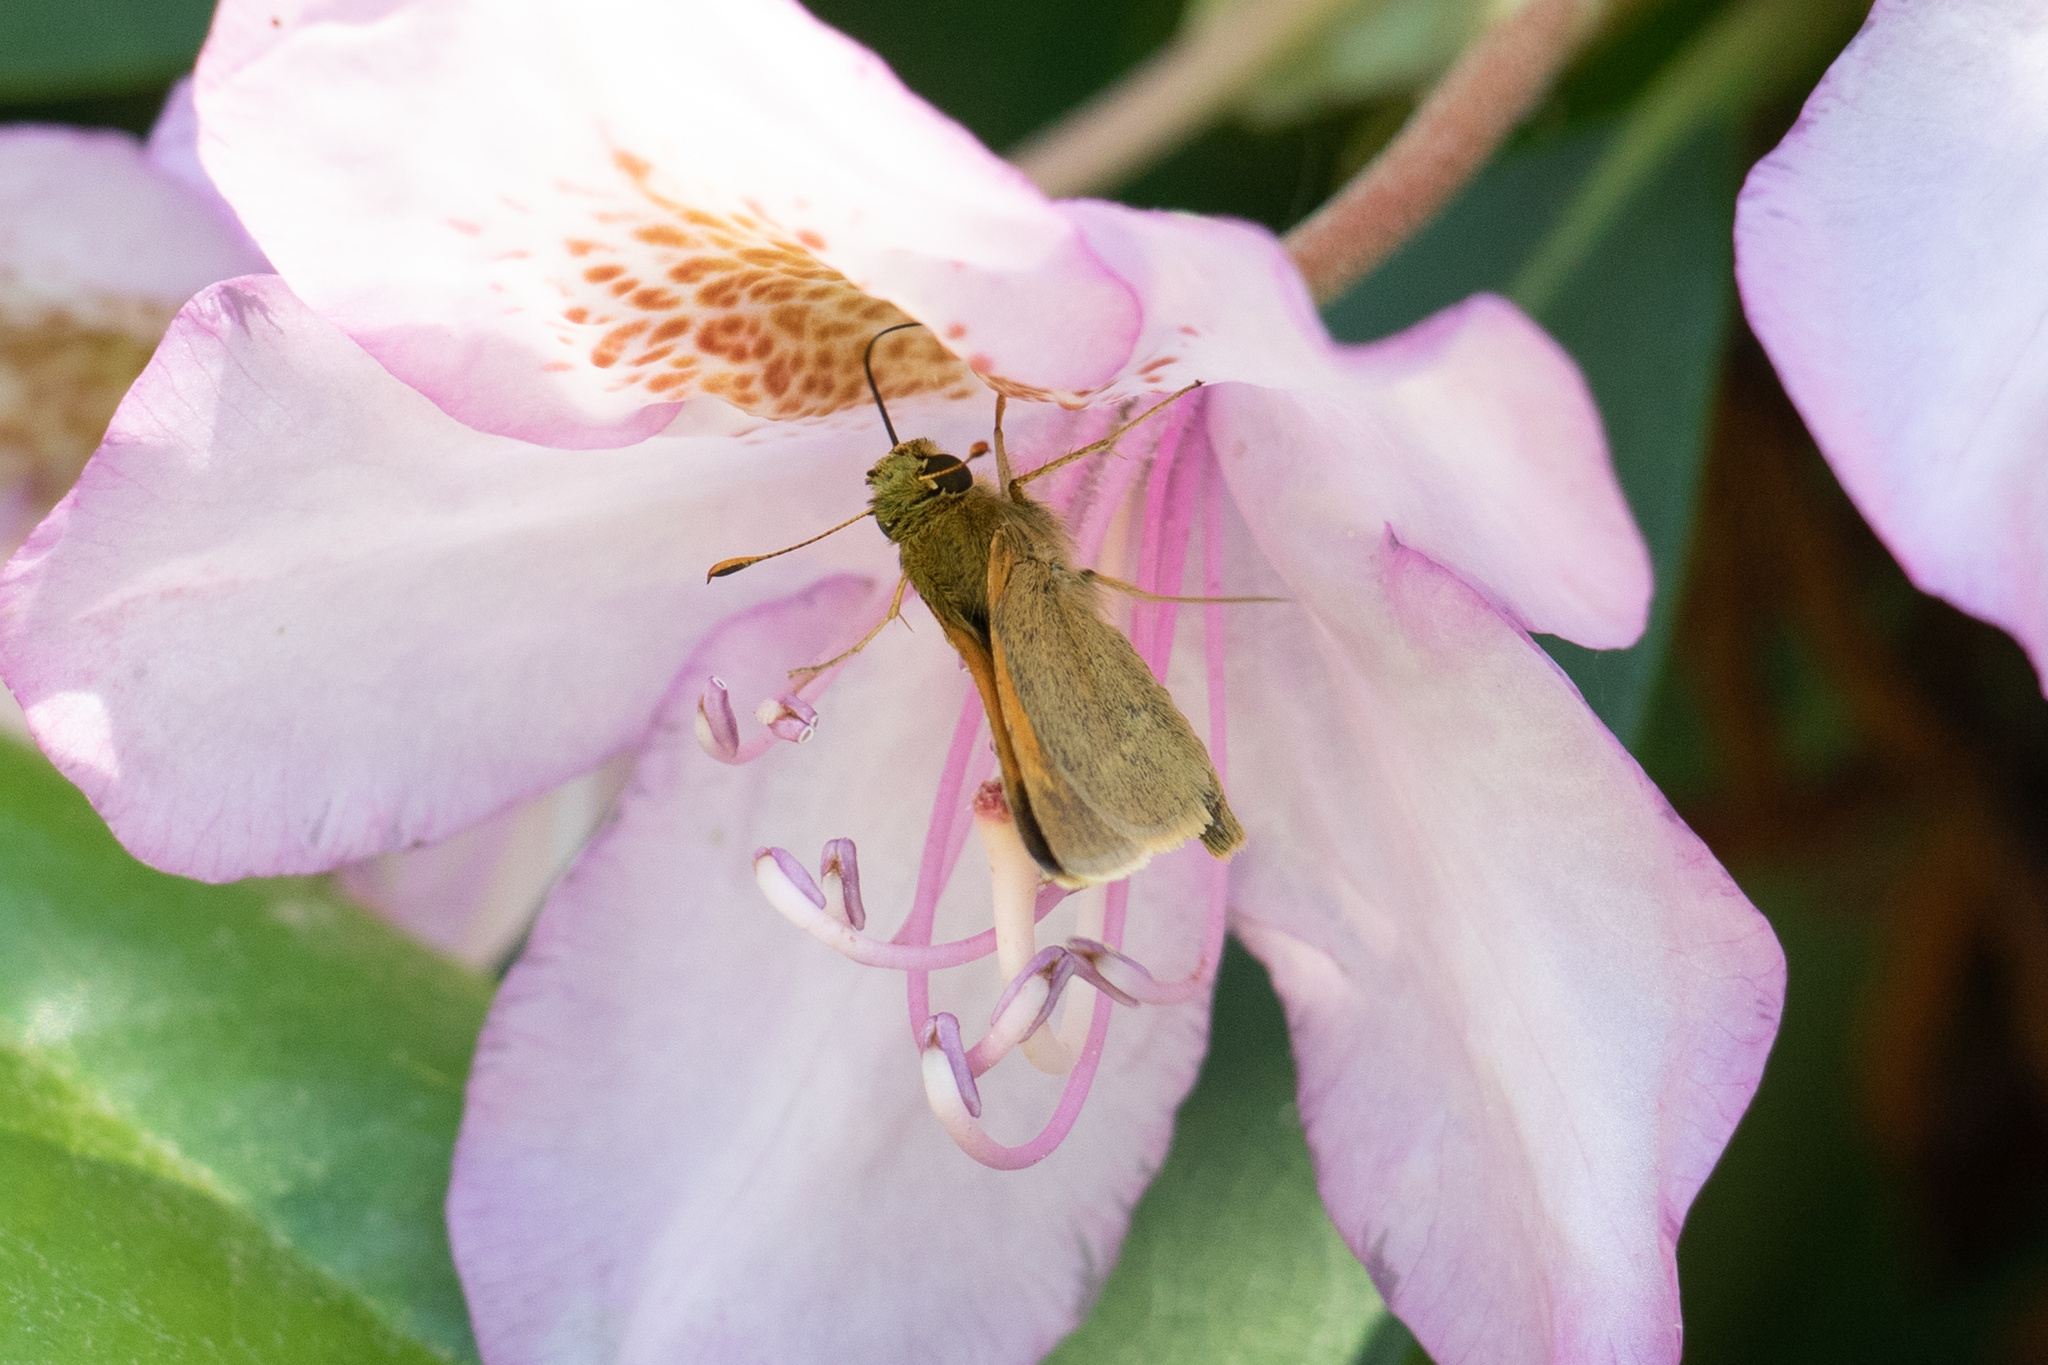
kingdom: Animalia
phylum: Arthropoda
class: Insecta
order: Lepidoptera
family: Hesperiidae
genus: Polites
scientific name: Polites themistocles
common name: Tawny-edged skipper
